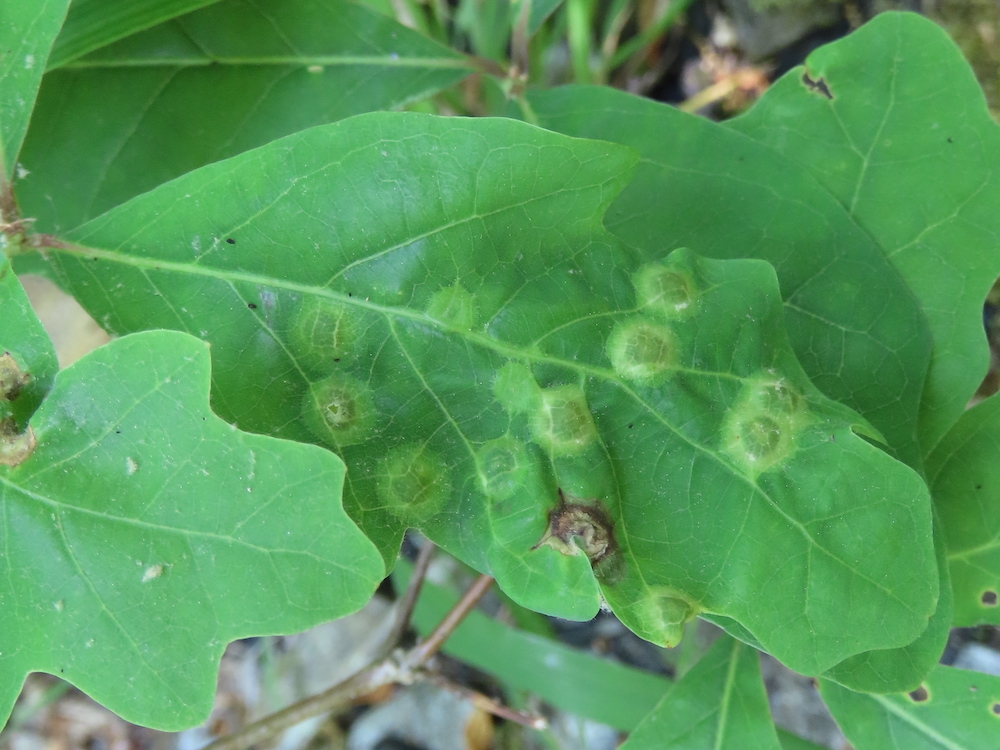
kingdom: Animalia
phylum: Arthropoda
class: Insecta
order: Hymenoptera
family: Cynipidae
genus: Callirhytis
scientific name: Callirhytis
